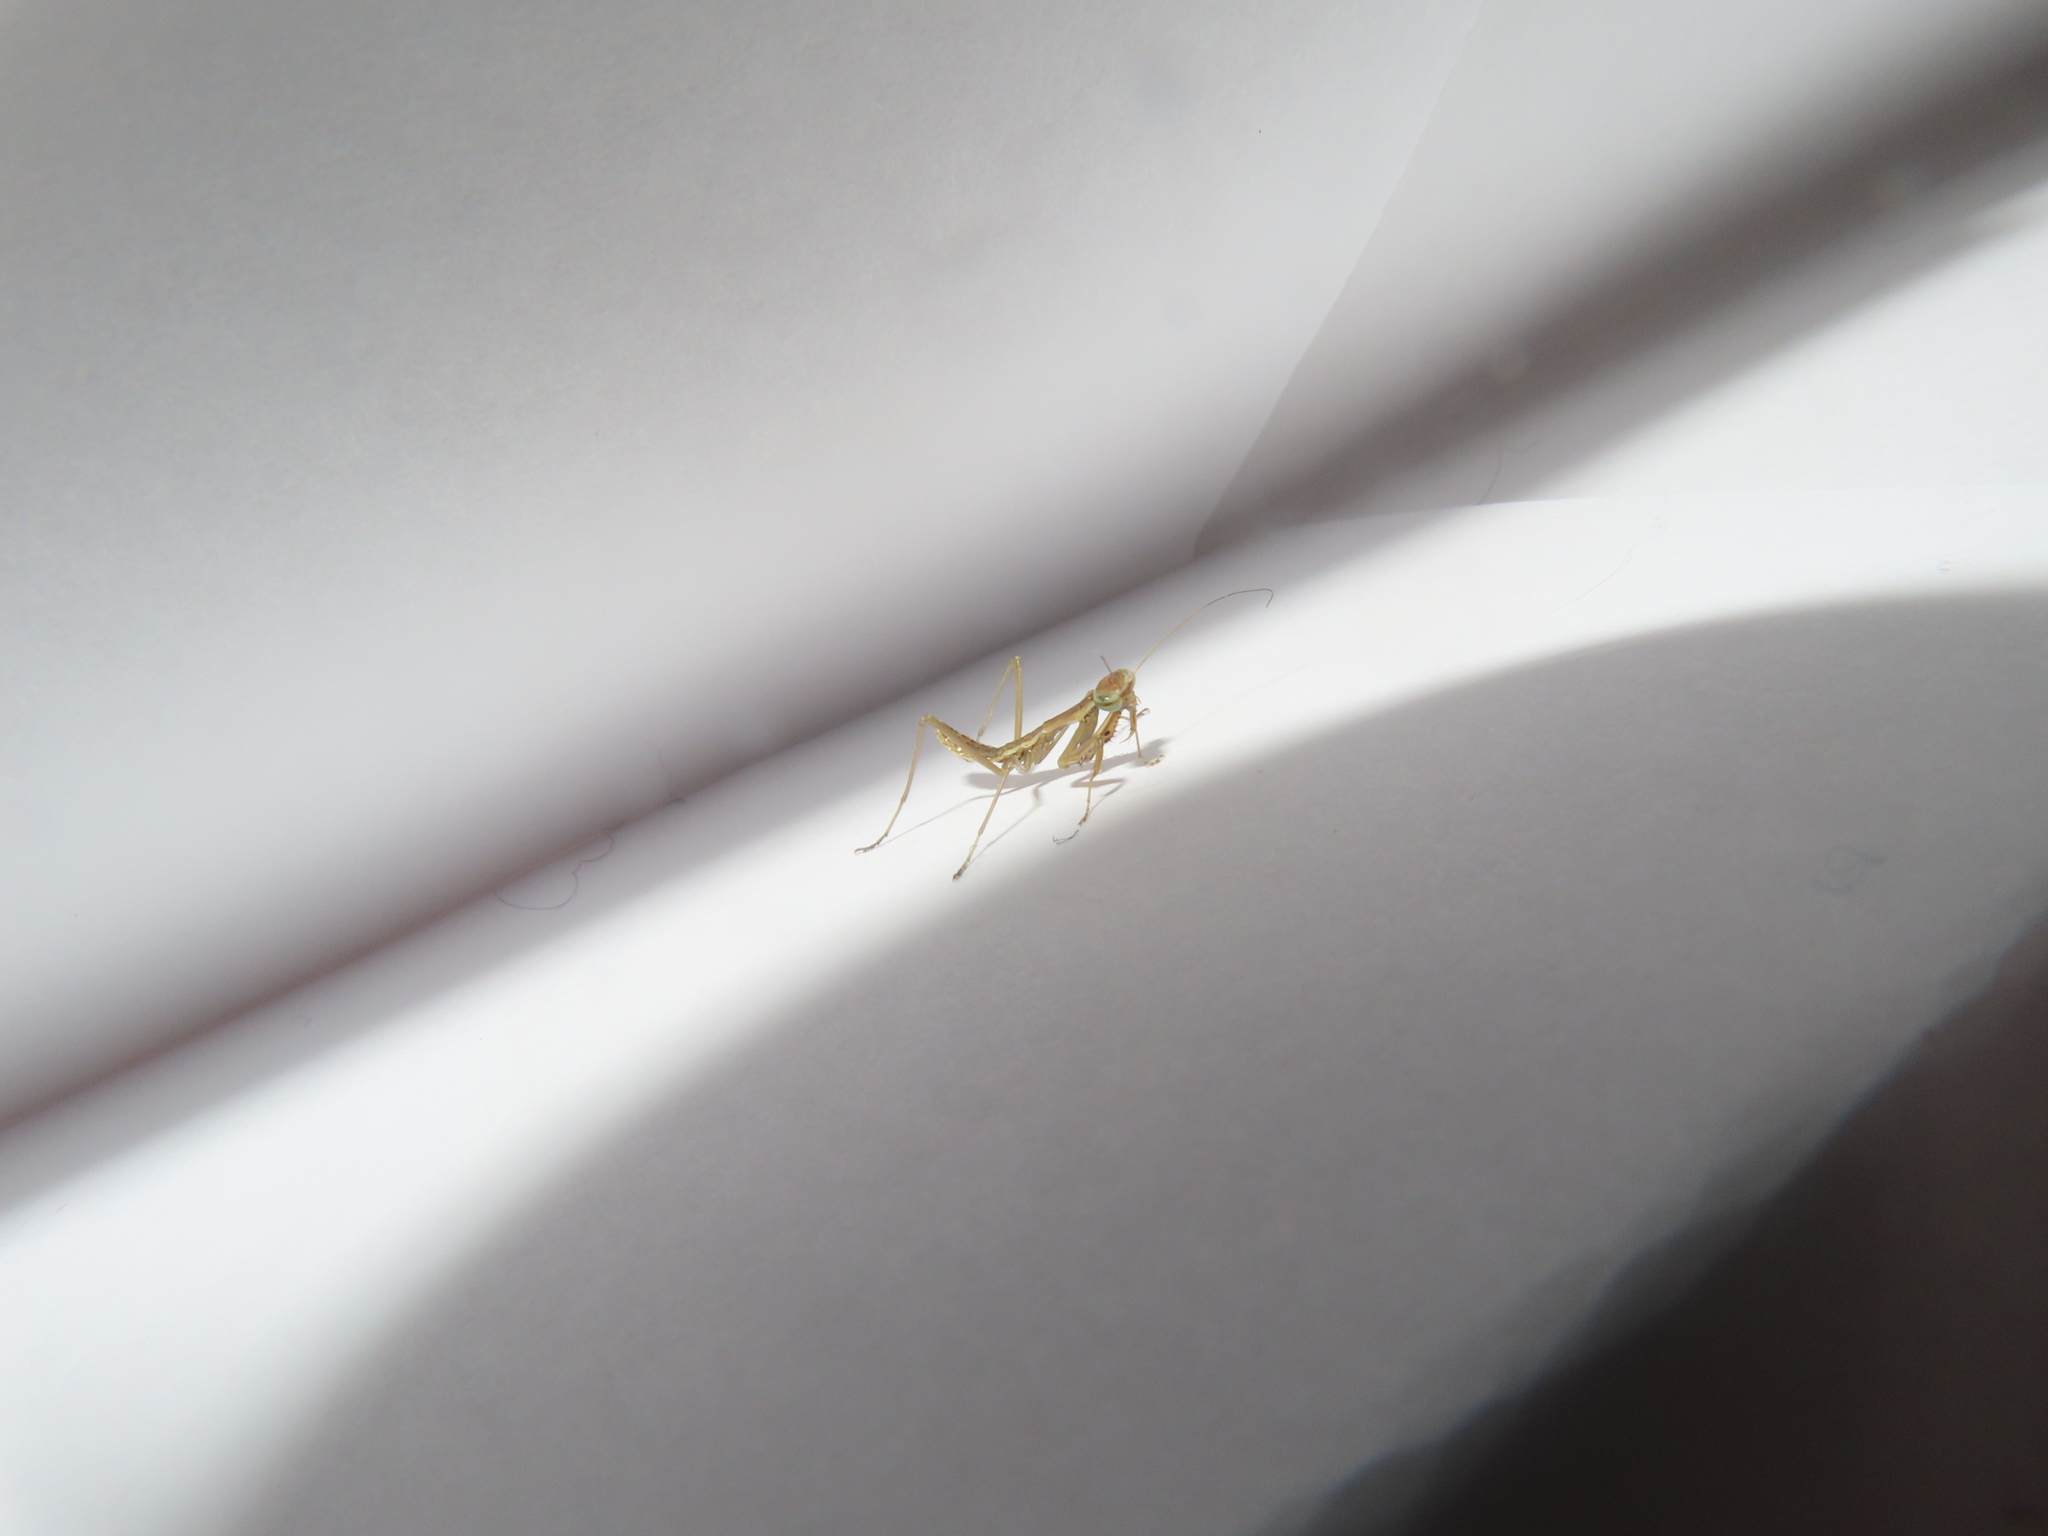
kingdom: Animalia
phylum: Arthropoda
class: Insecta
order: Mantodea
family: Mantidae
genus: Tenodera
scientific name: Tenodera sinensis
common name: Chinese mantis
